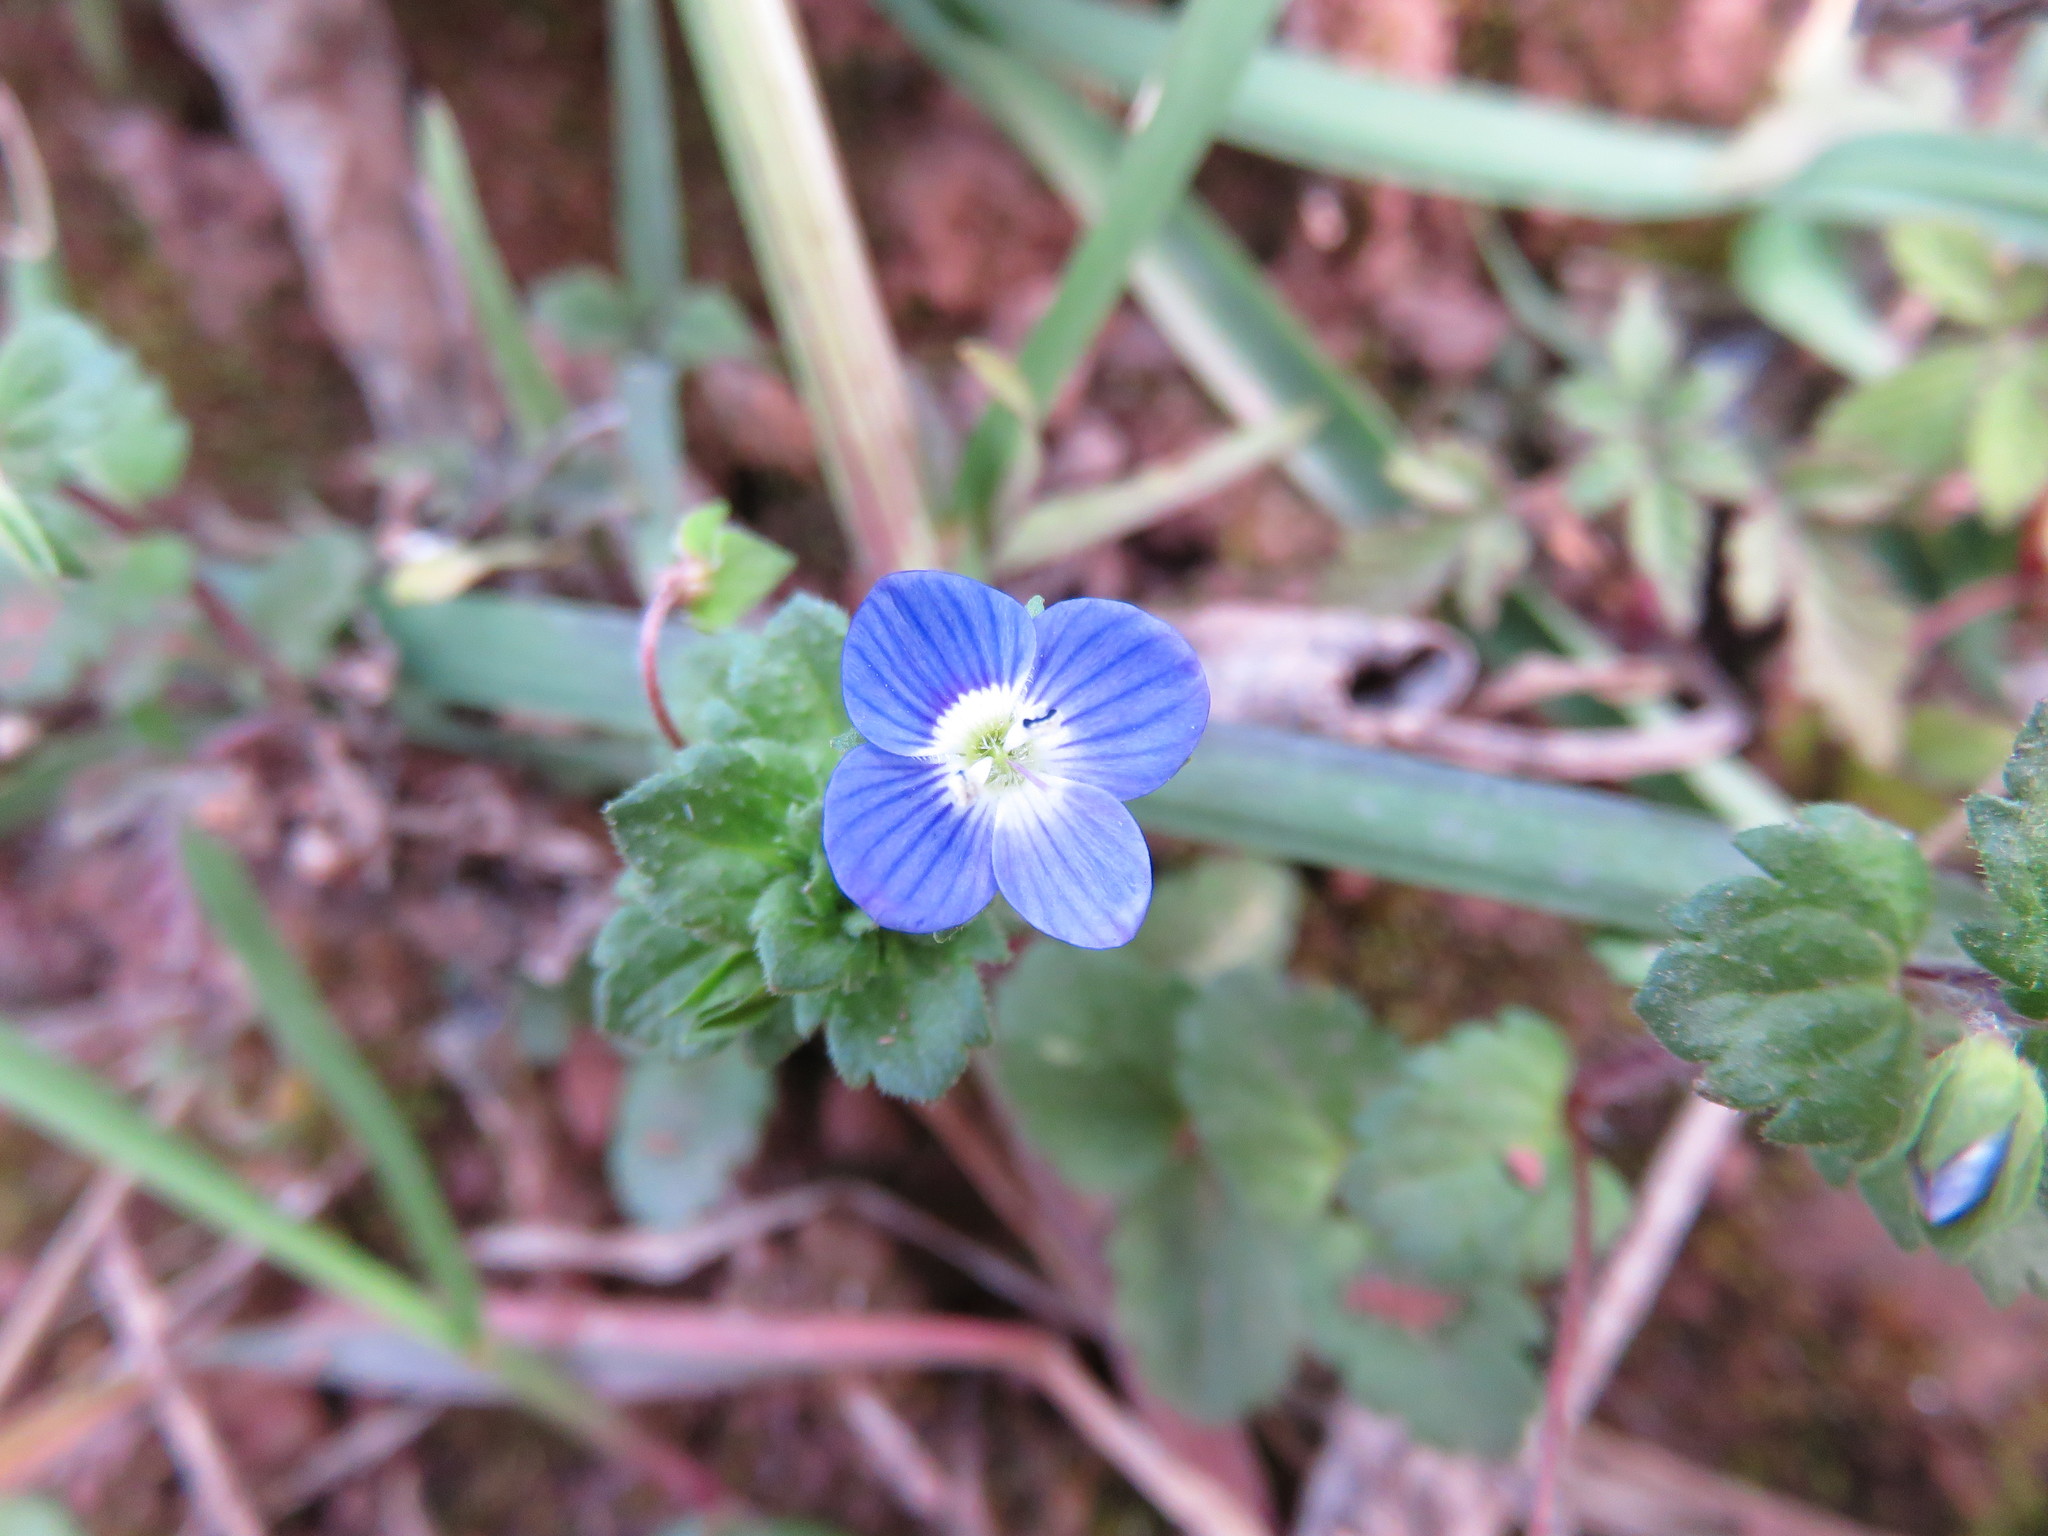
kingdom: Plantae
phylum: Tracheophyta
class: Magnoliopsida
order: Lamiales
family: Plantaginaceae
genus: Veronica
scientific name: Veronica persica
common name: Common field-speedwell
